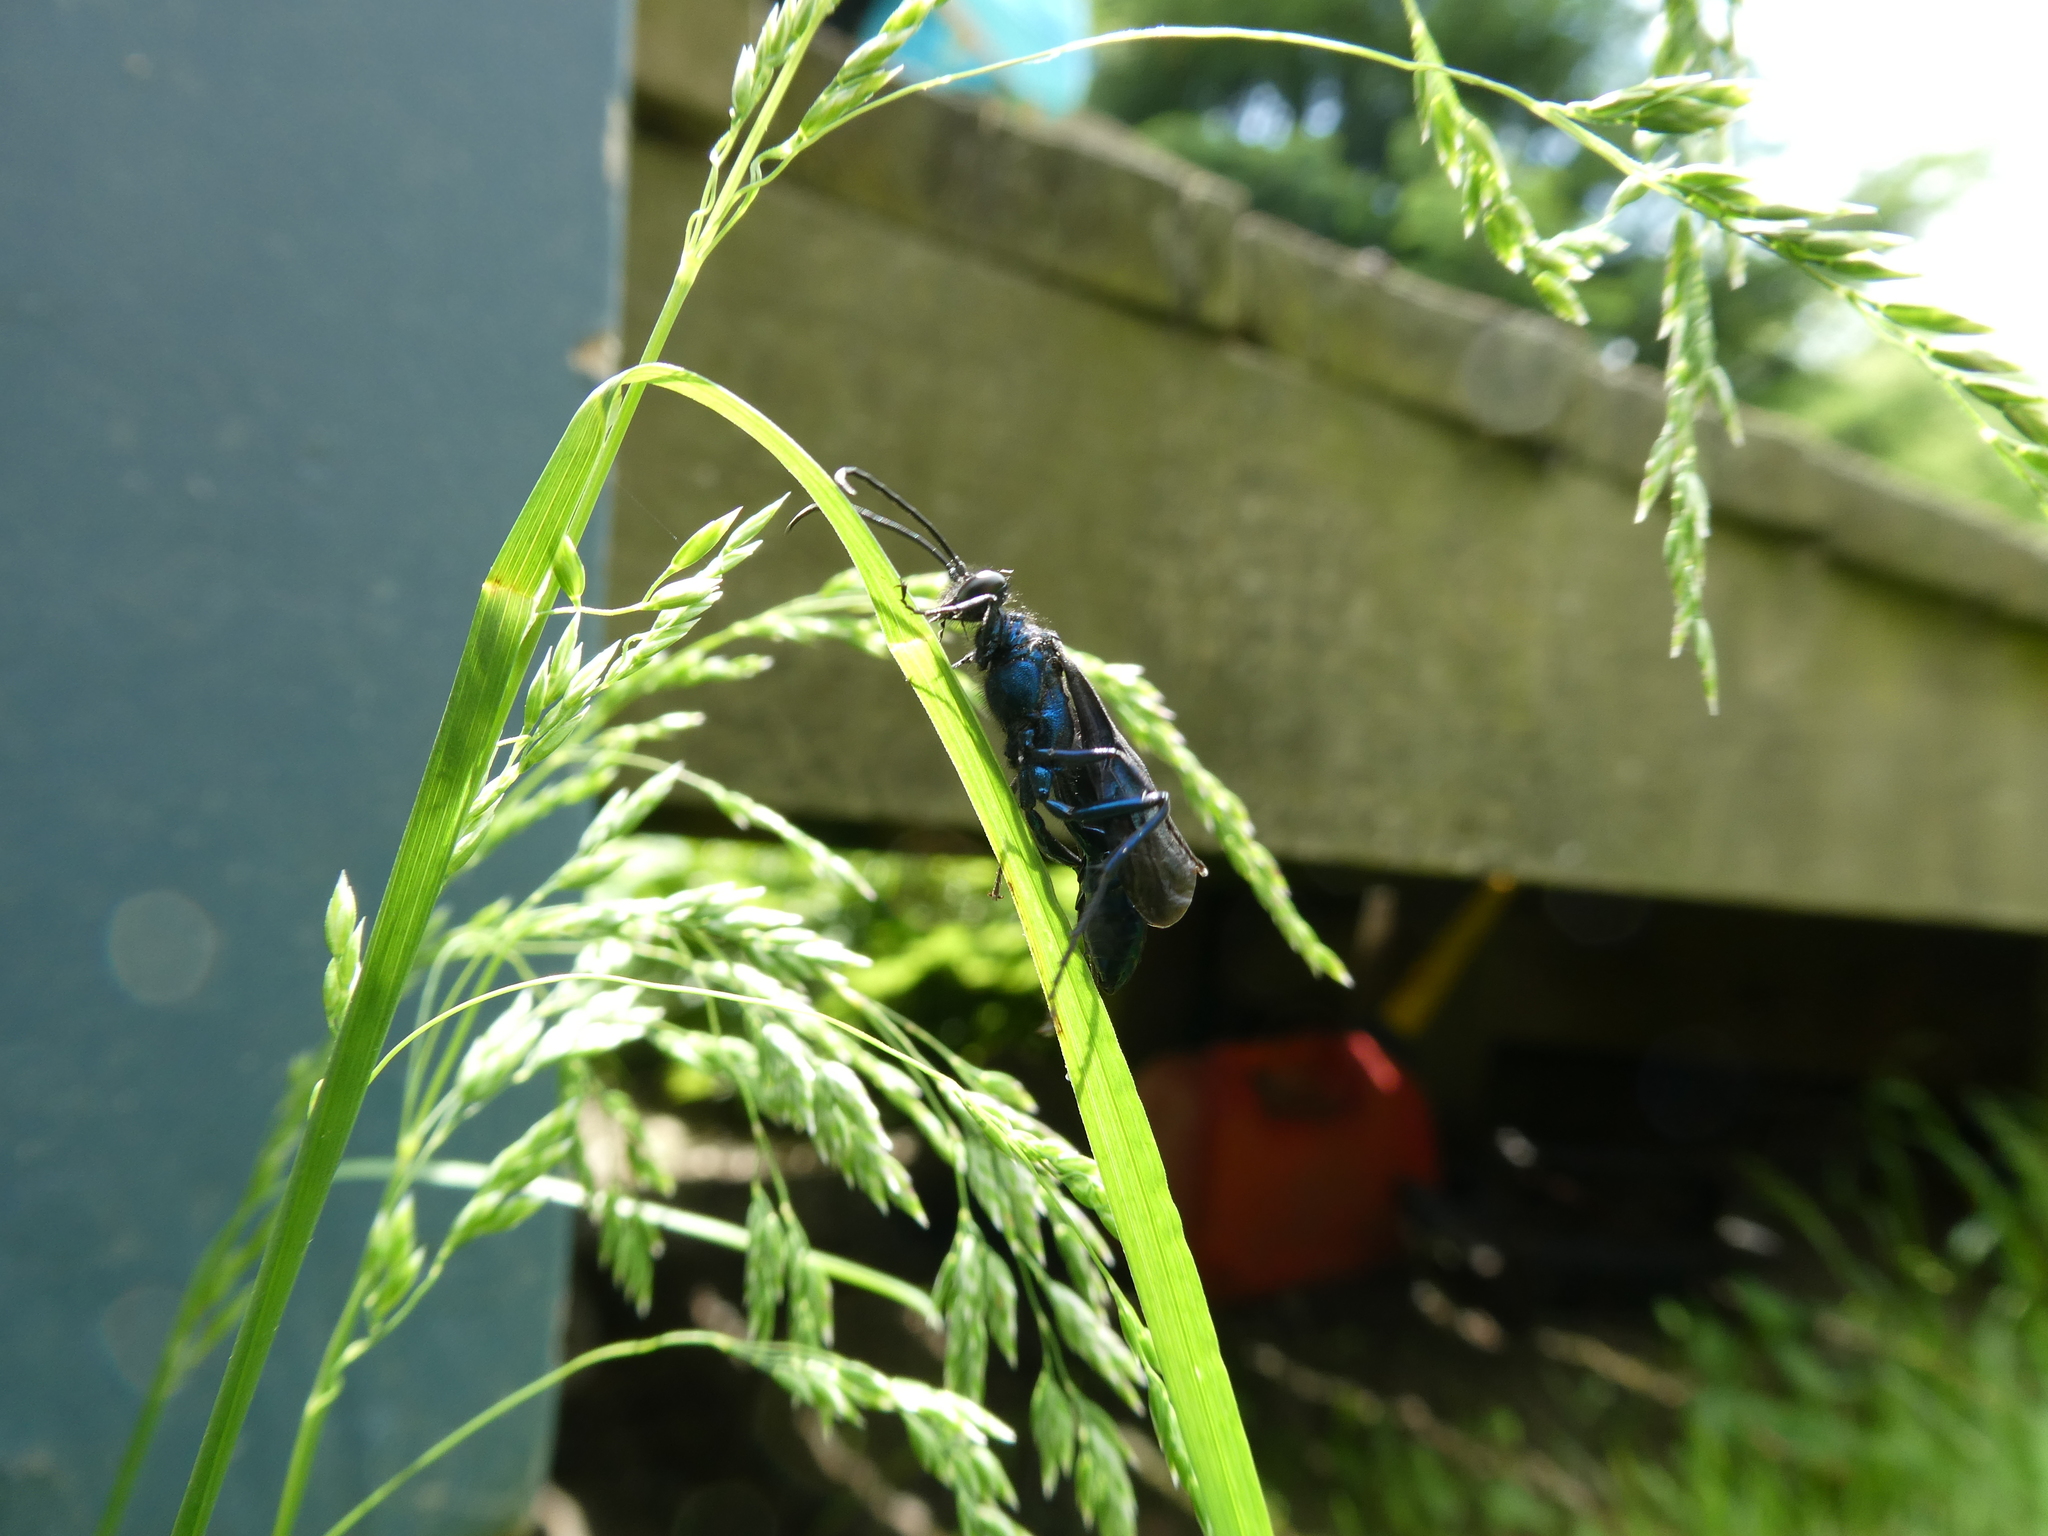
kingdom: Animalia
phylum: Arthropoda
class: Insecta
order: Hymenoptera
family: Sphecidae
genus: Chalybion
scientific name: Chalybion californicum
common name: Mud dauber
